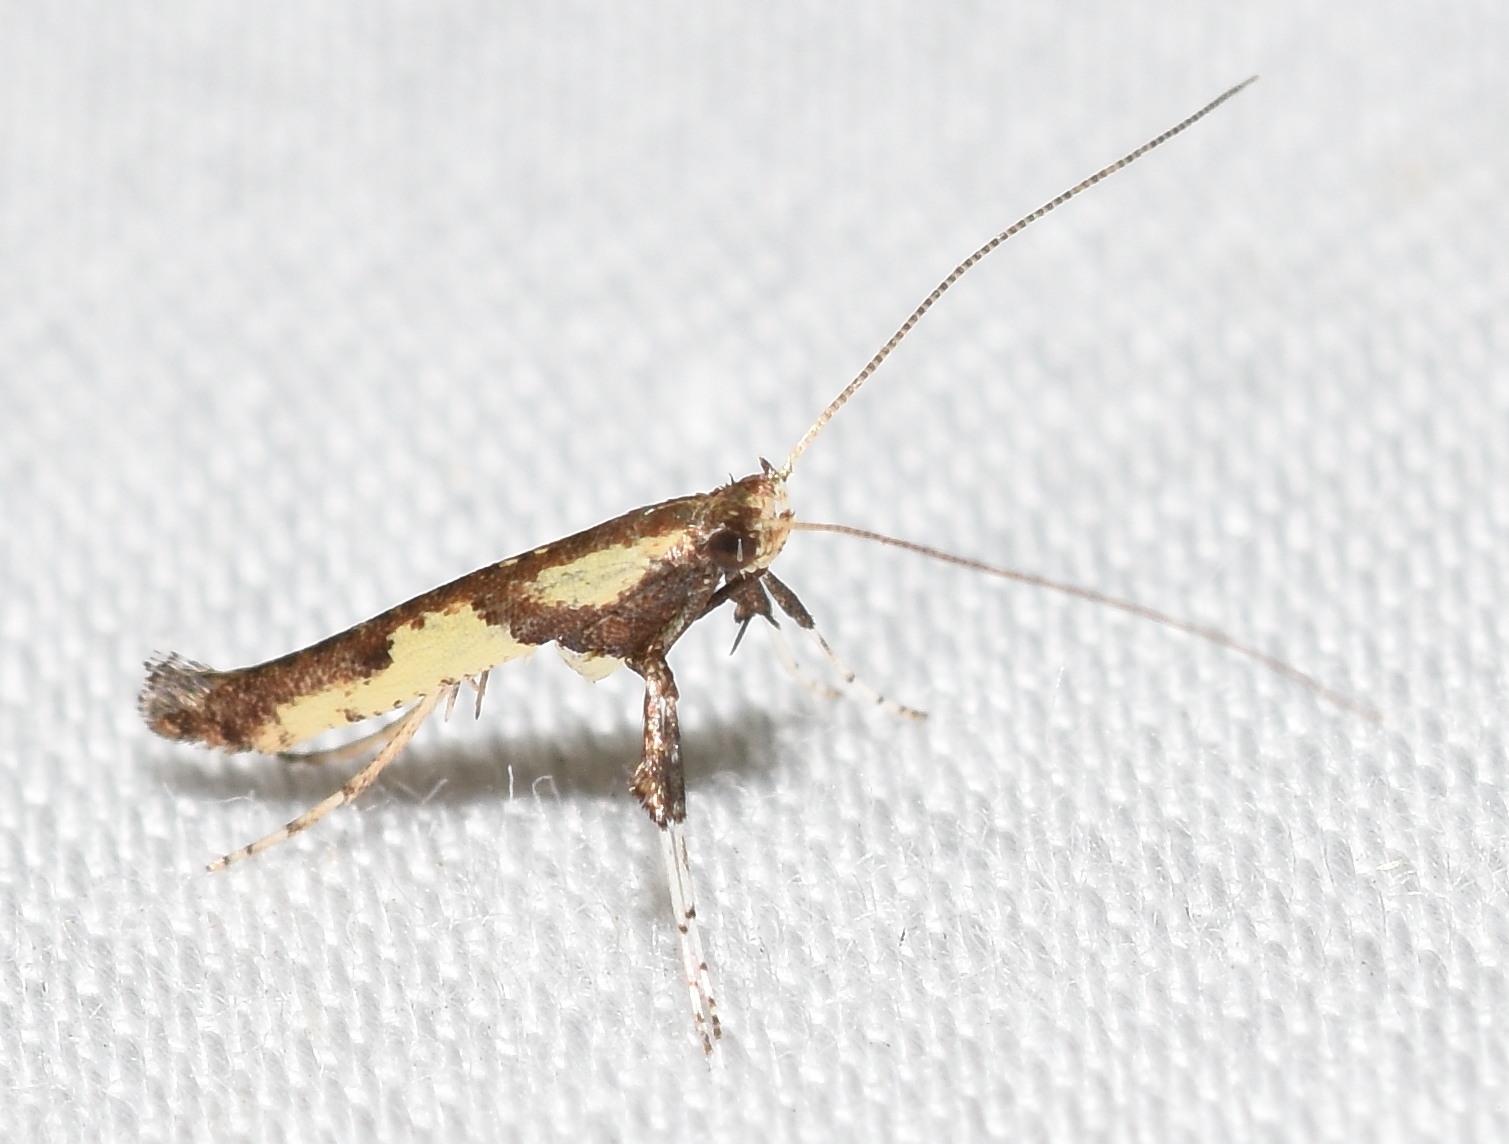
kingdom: Animalia
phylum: Arthropoda
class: Insecta
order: Lepidoptera
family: Gracillariidae
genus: Caloptilia
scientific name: Caloptilia blandella
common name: Walnut caloptilia moth
